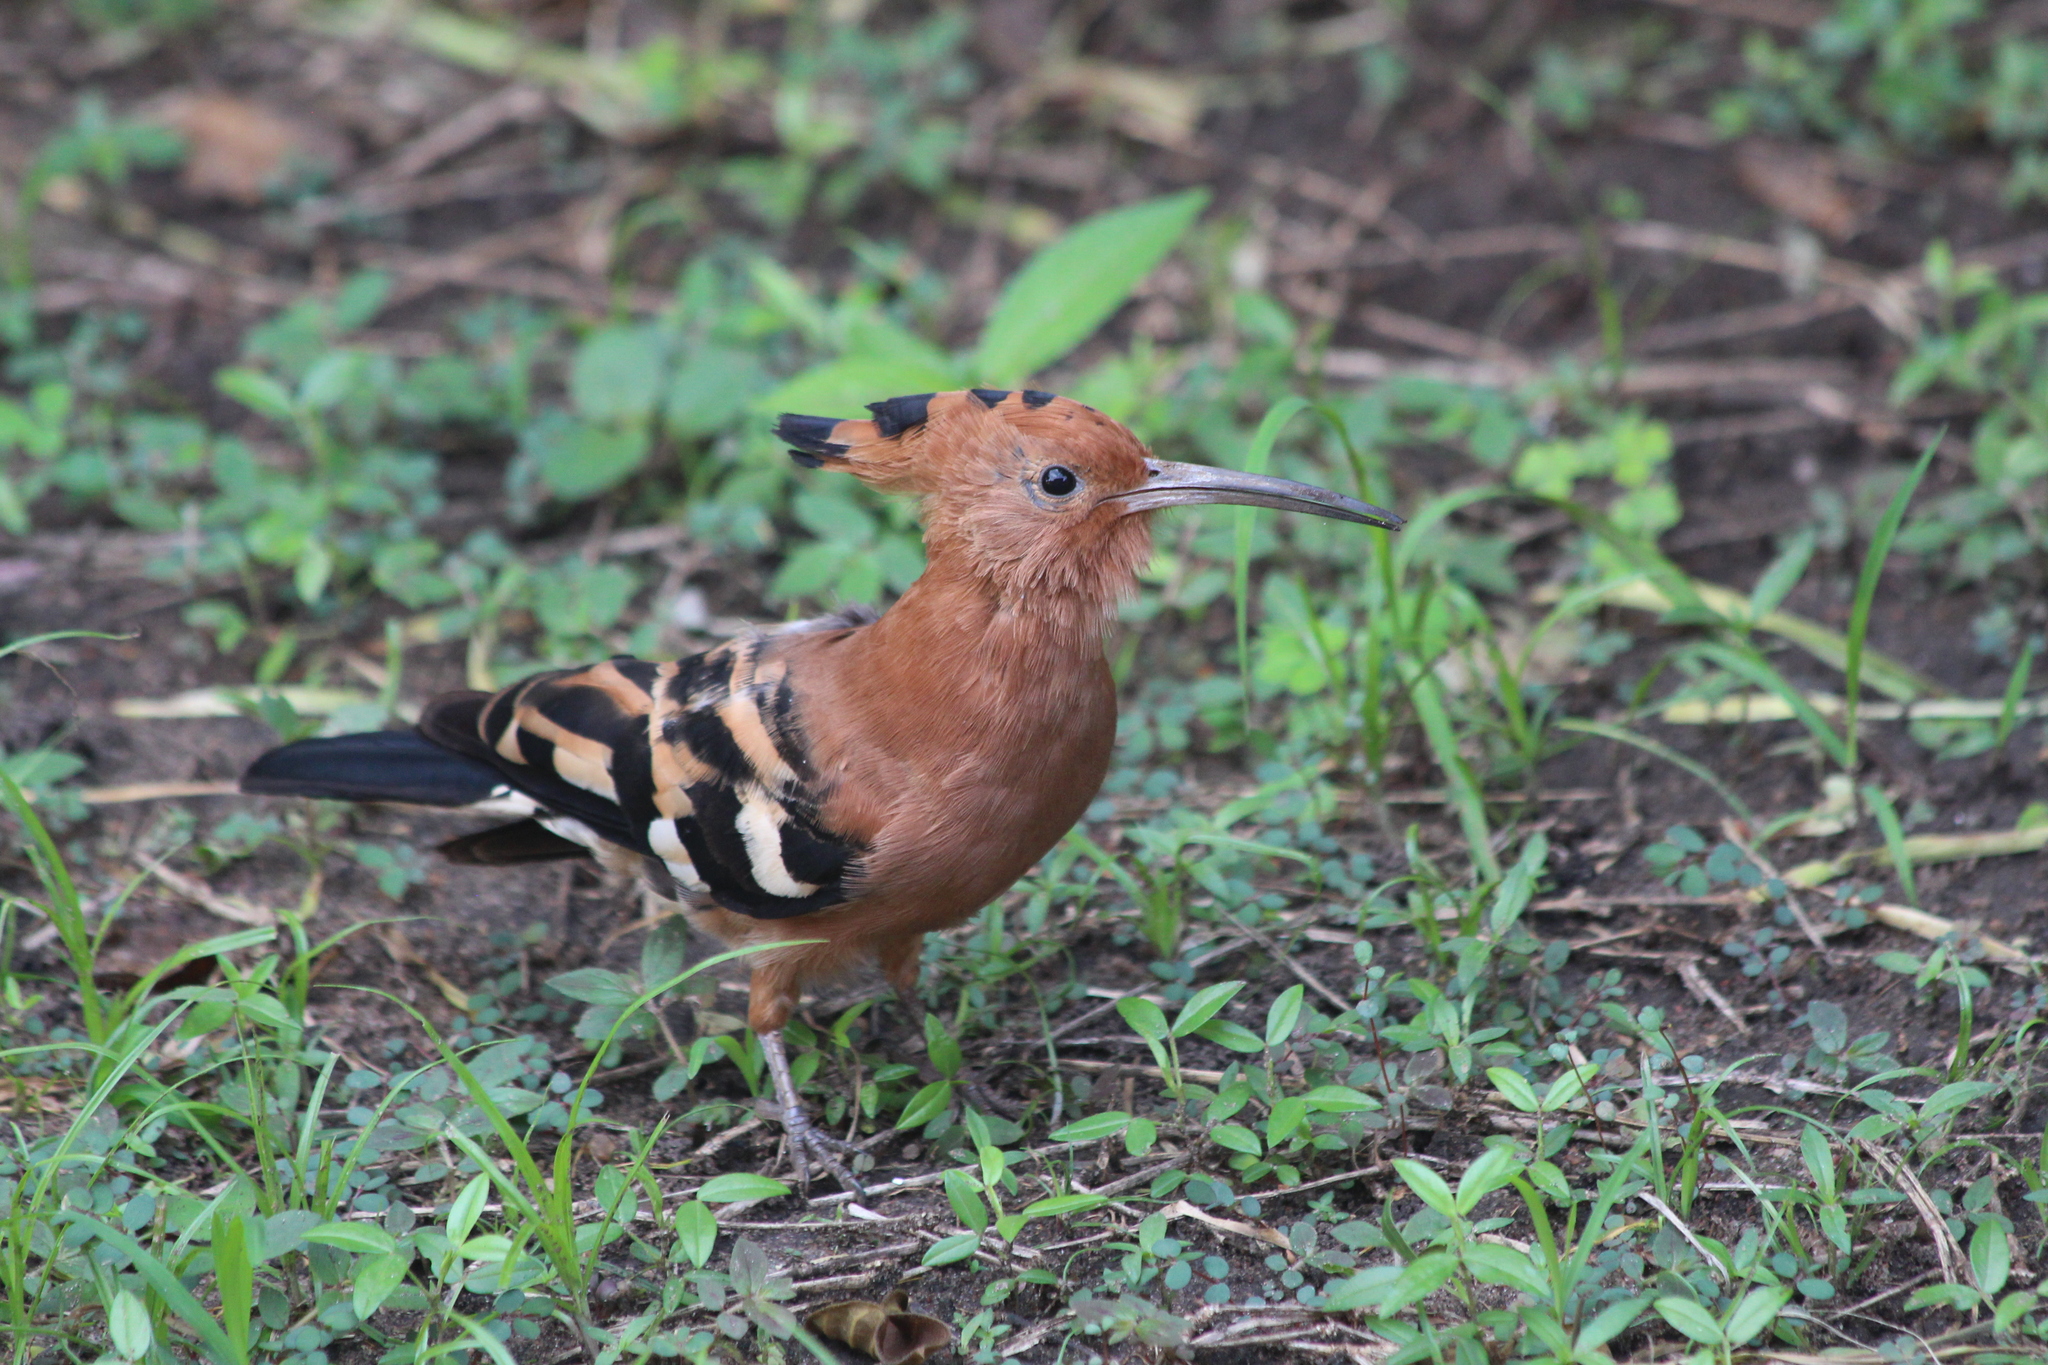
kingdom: Animalia
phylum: Chordata
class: Aves
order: Bucerotiformes
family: Upupidae
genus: Upupa
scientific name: Upupa epops
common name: Eurasian hoopoe
